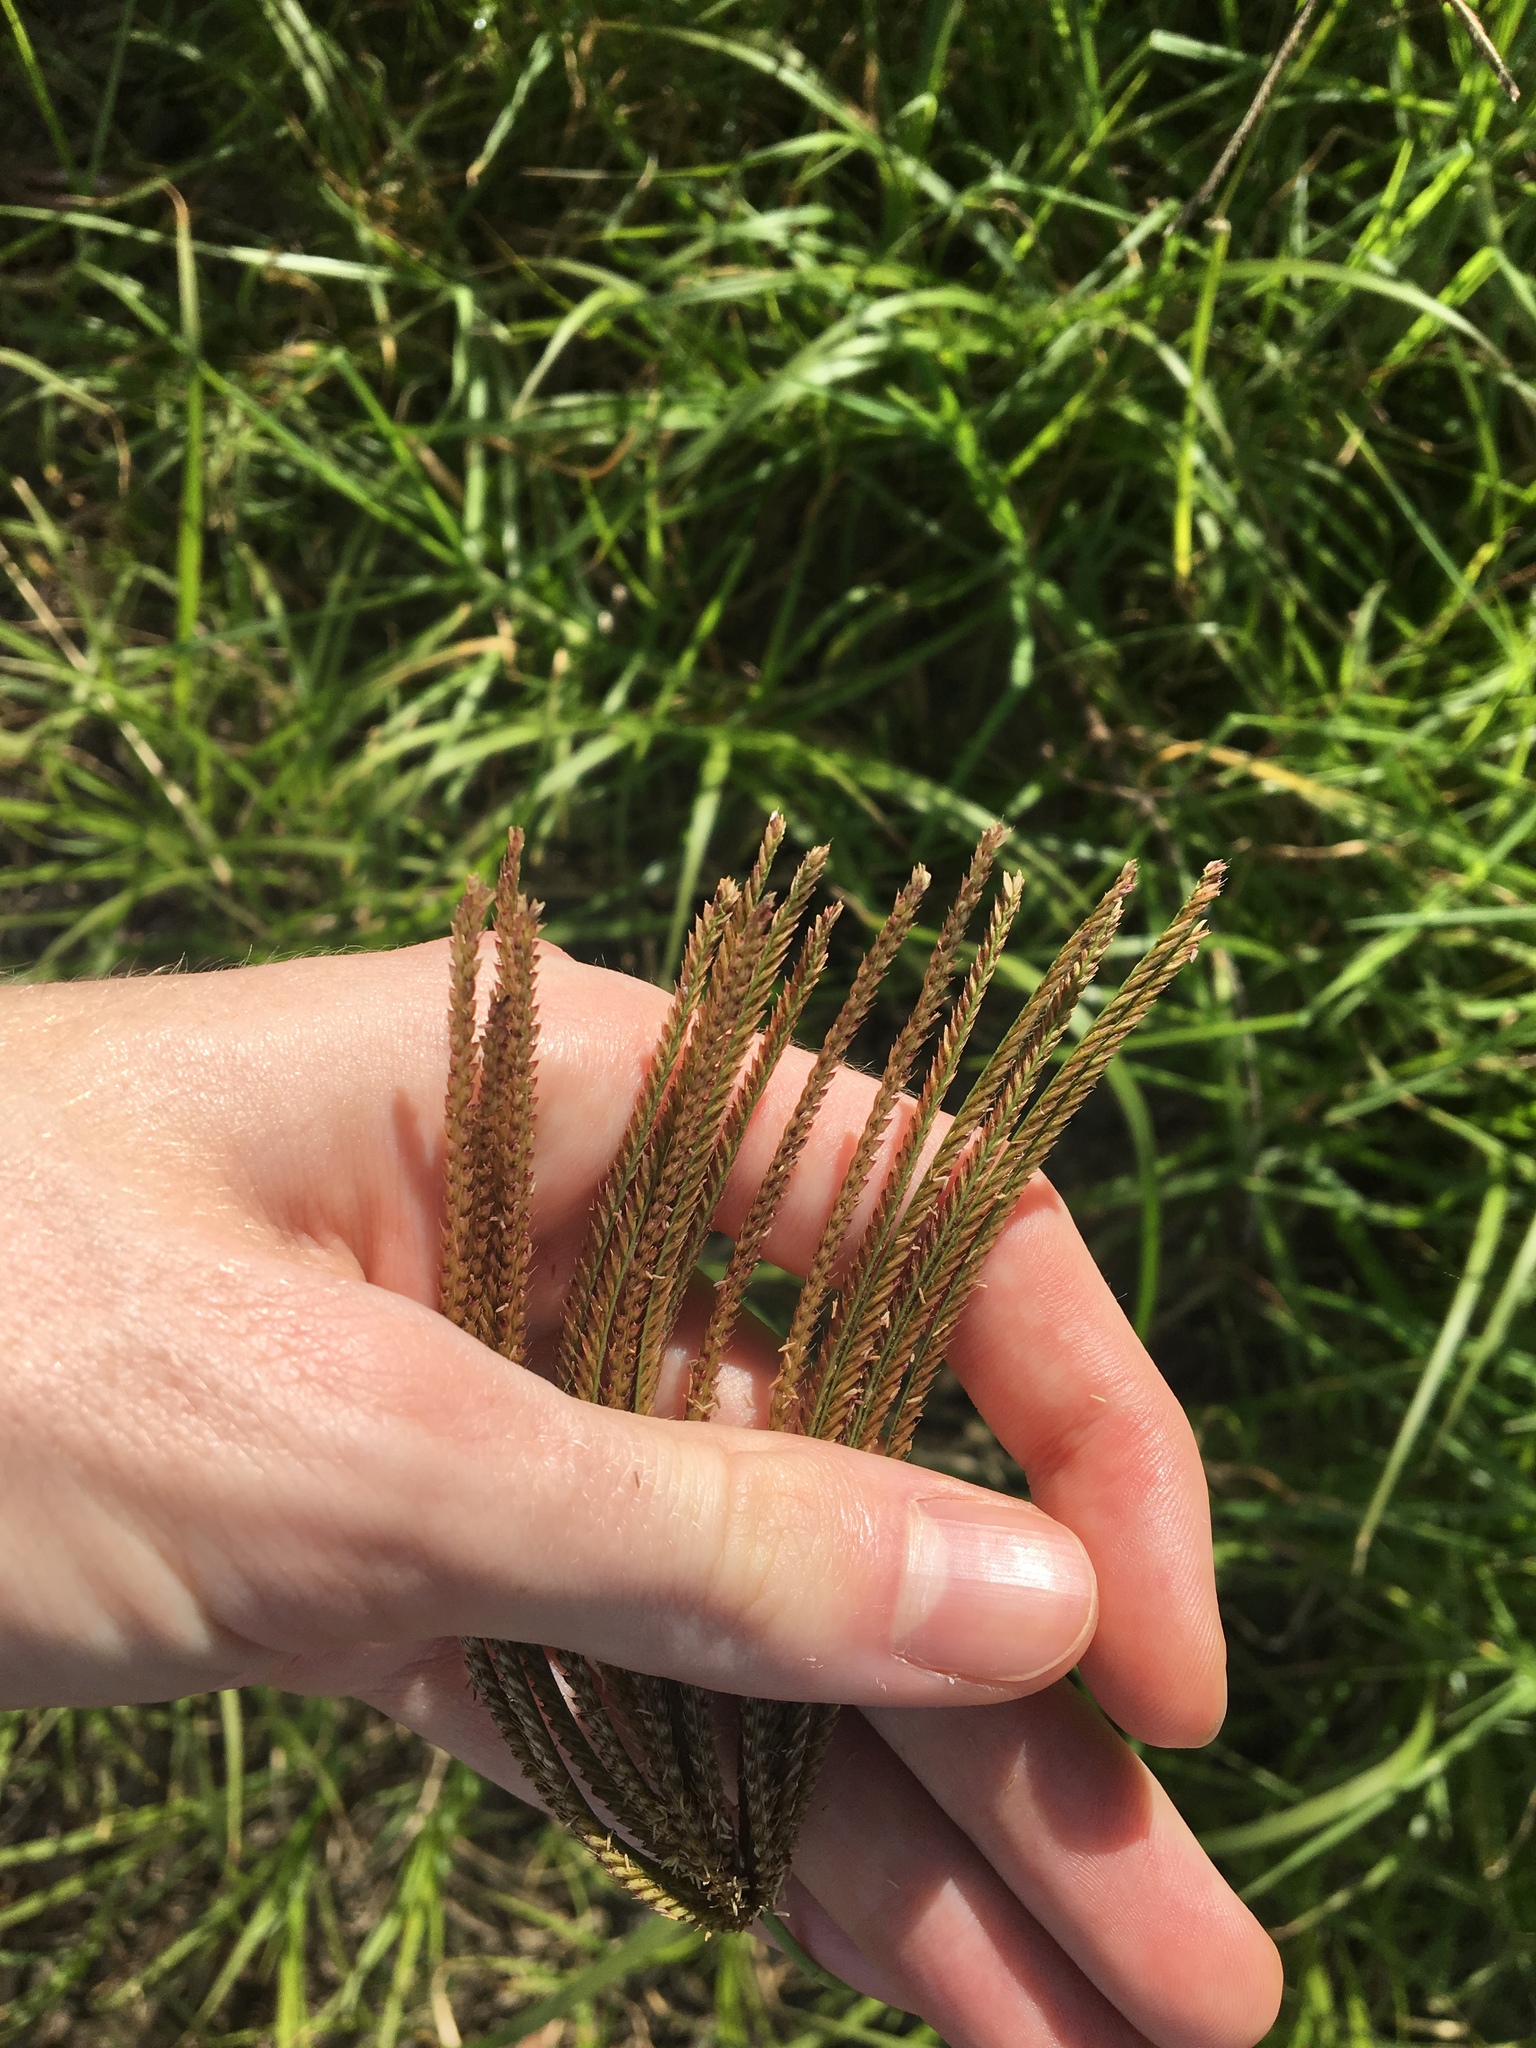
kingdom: Plantae
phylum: Tracheophyta
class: Liliopsida
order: Poales
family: Poaceae
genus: Chloris
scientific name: Chloris gayana
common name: Rhodes grass
